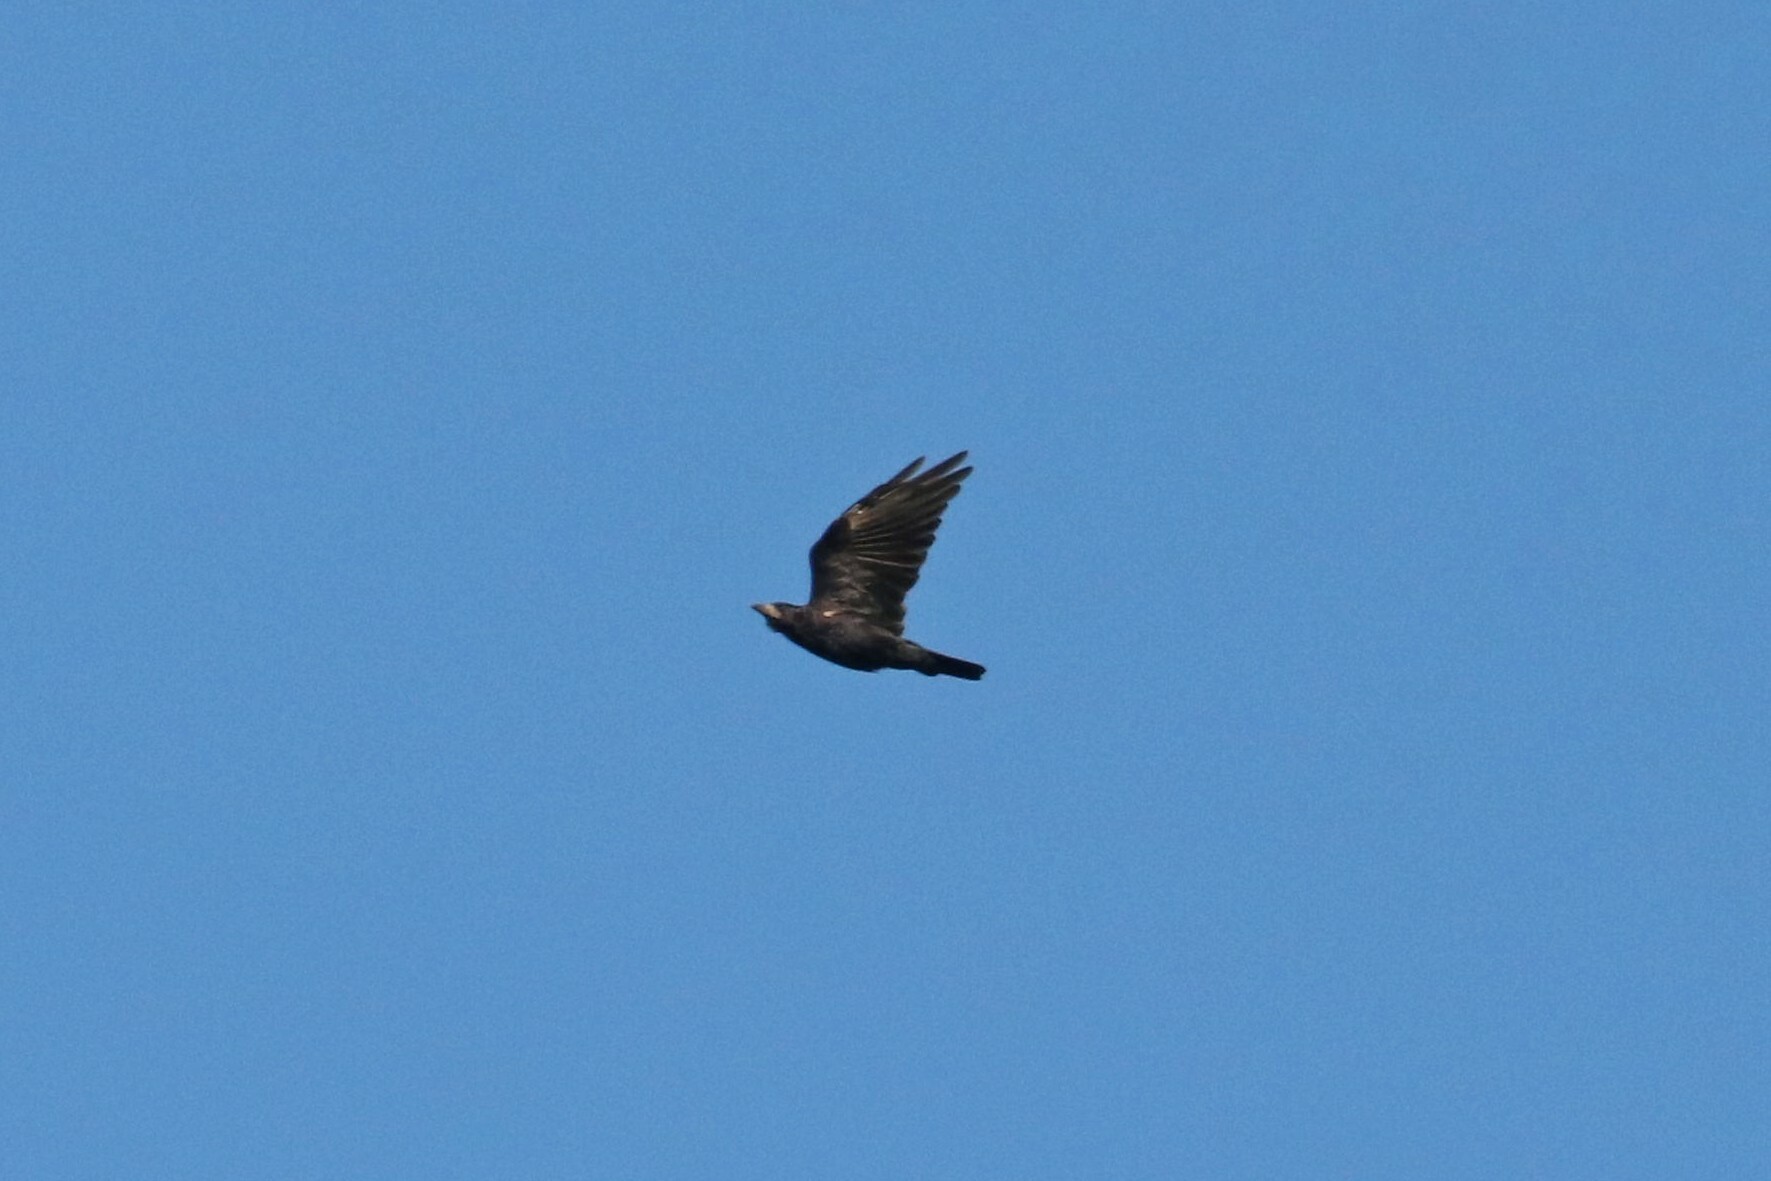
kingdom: Animalia
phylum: Chordata
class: Aves
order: Passeriformes
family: Corvidae
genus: Corvus
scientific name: Corvus frugilegus
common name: Rook
